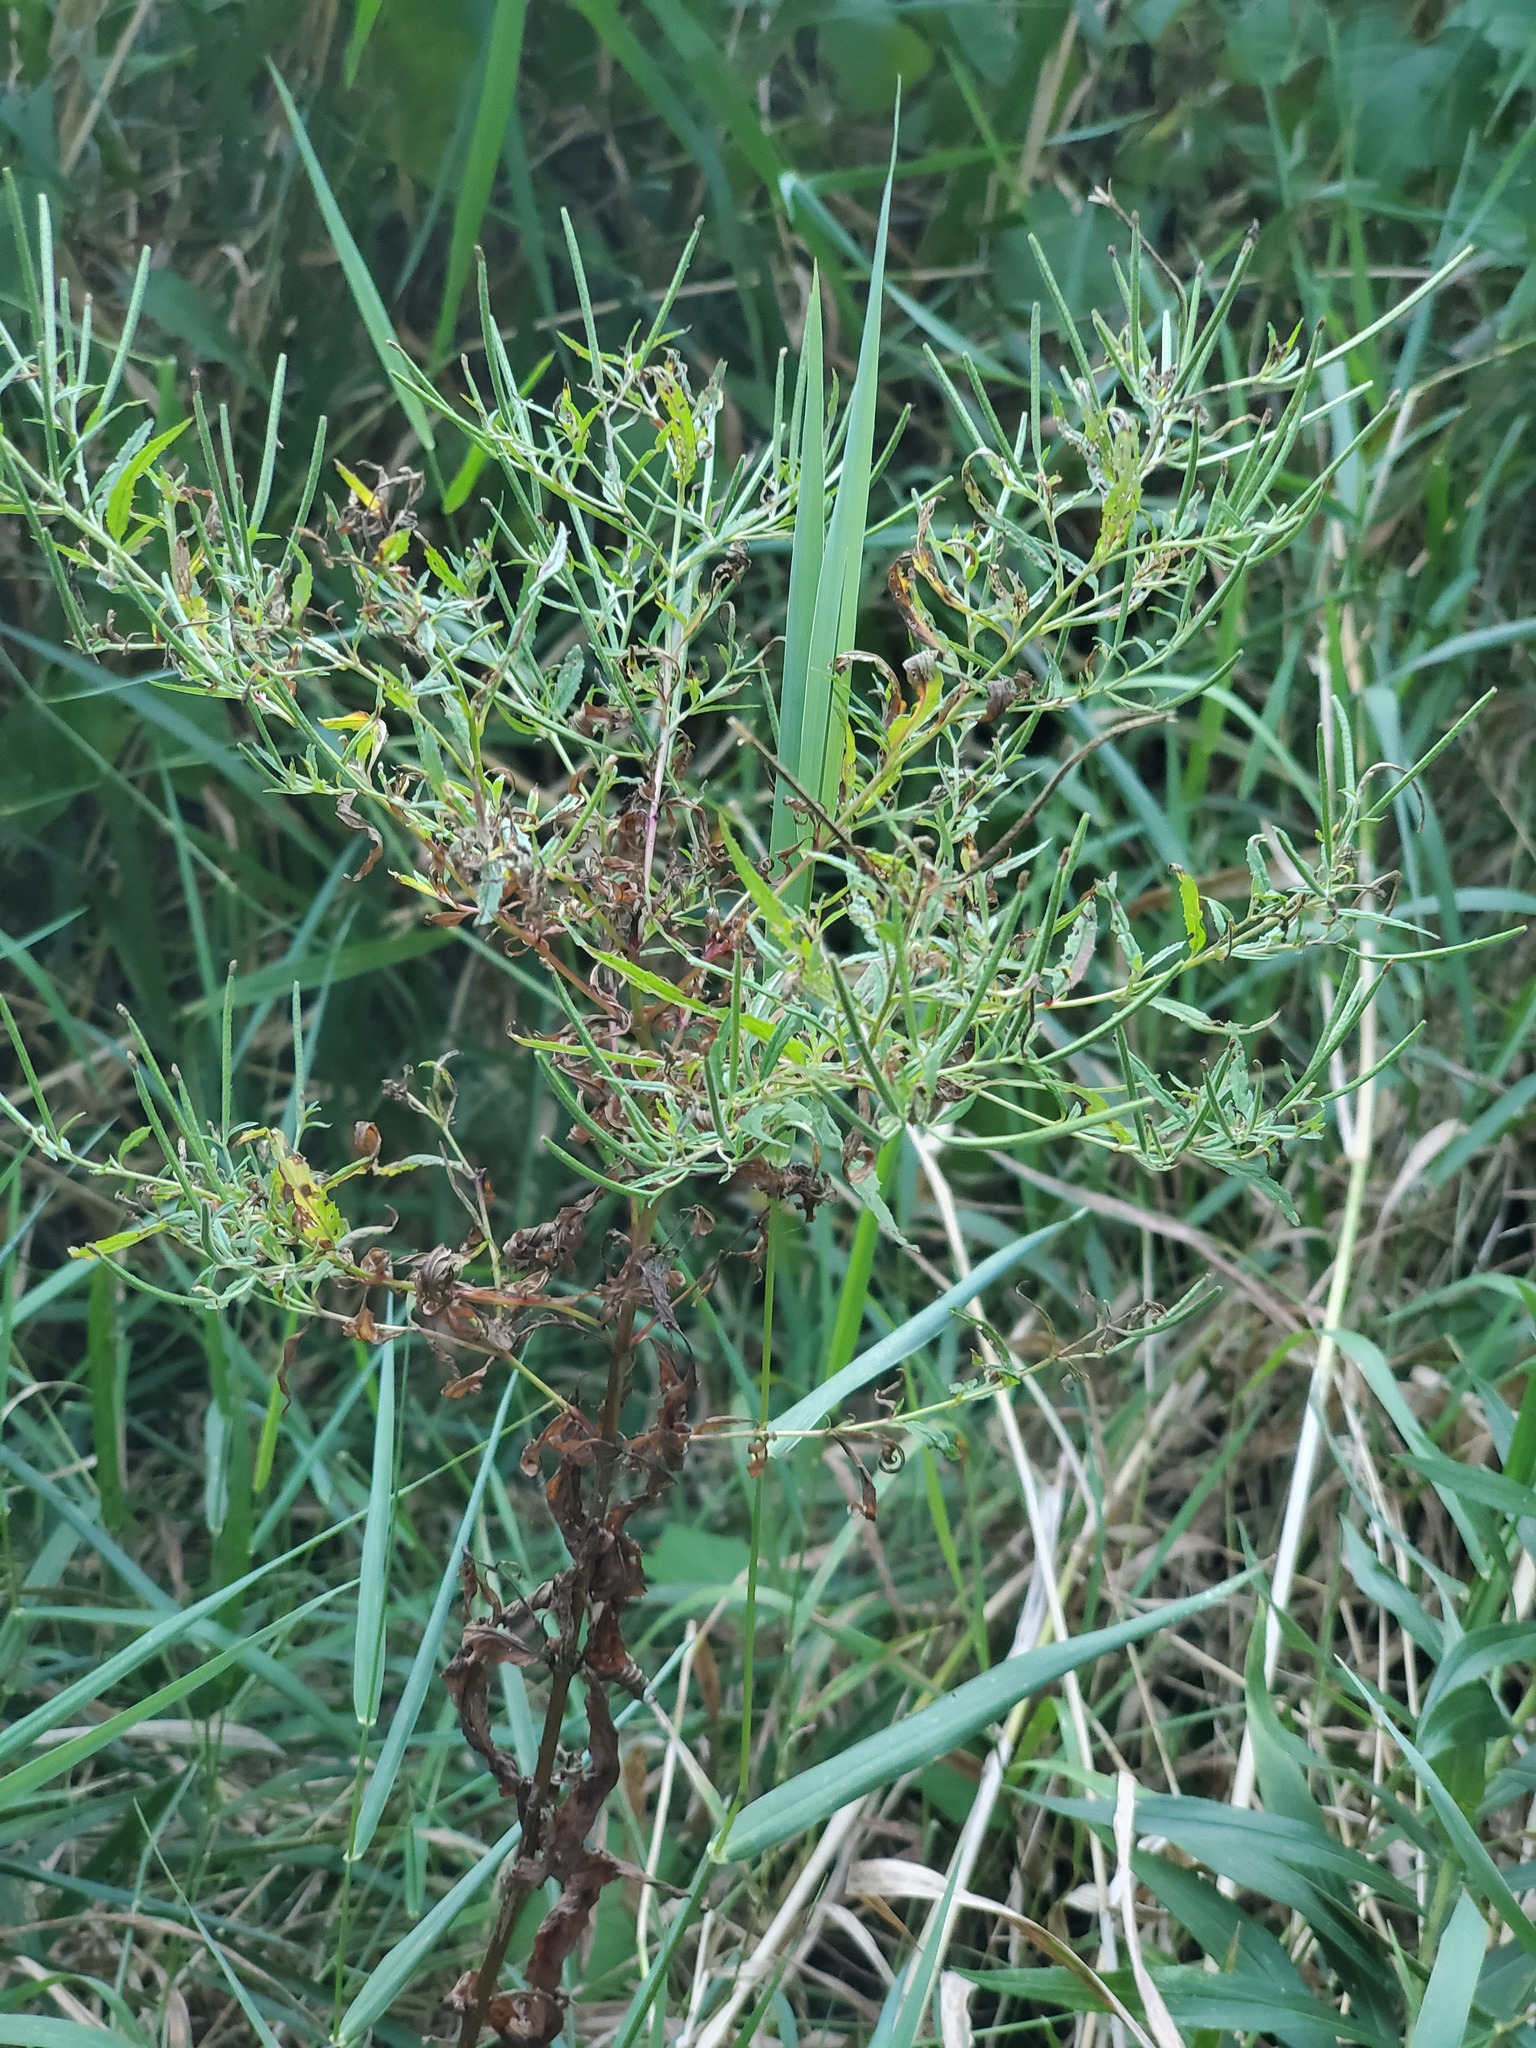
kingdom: Plantae
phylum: Tracheophyta
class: Magnoliopsida
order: Myrtales
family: Onagraceae
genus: Epilobium
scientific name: Epilobium coloratum
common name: Bronze willowherb
